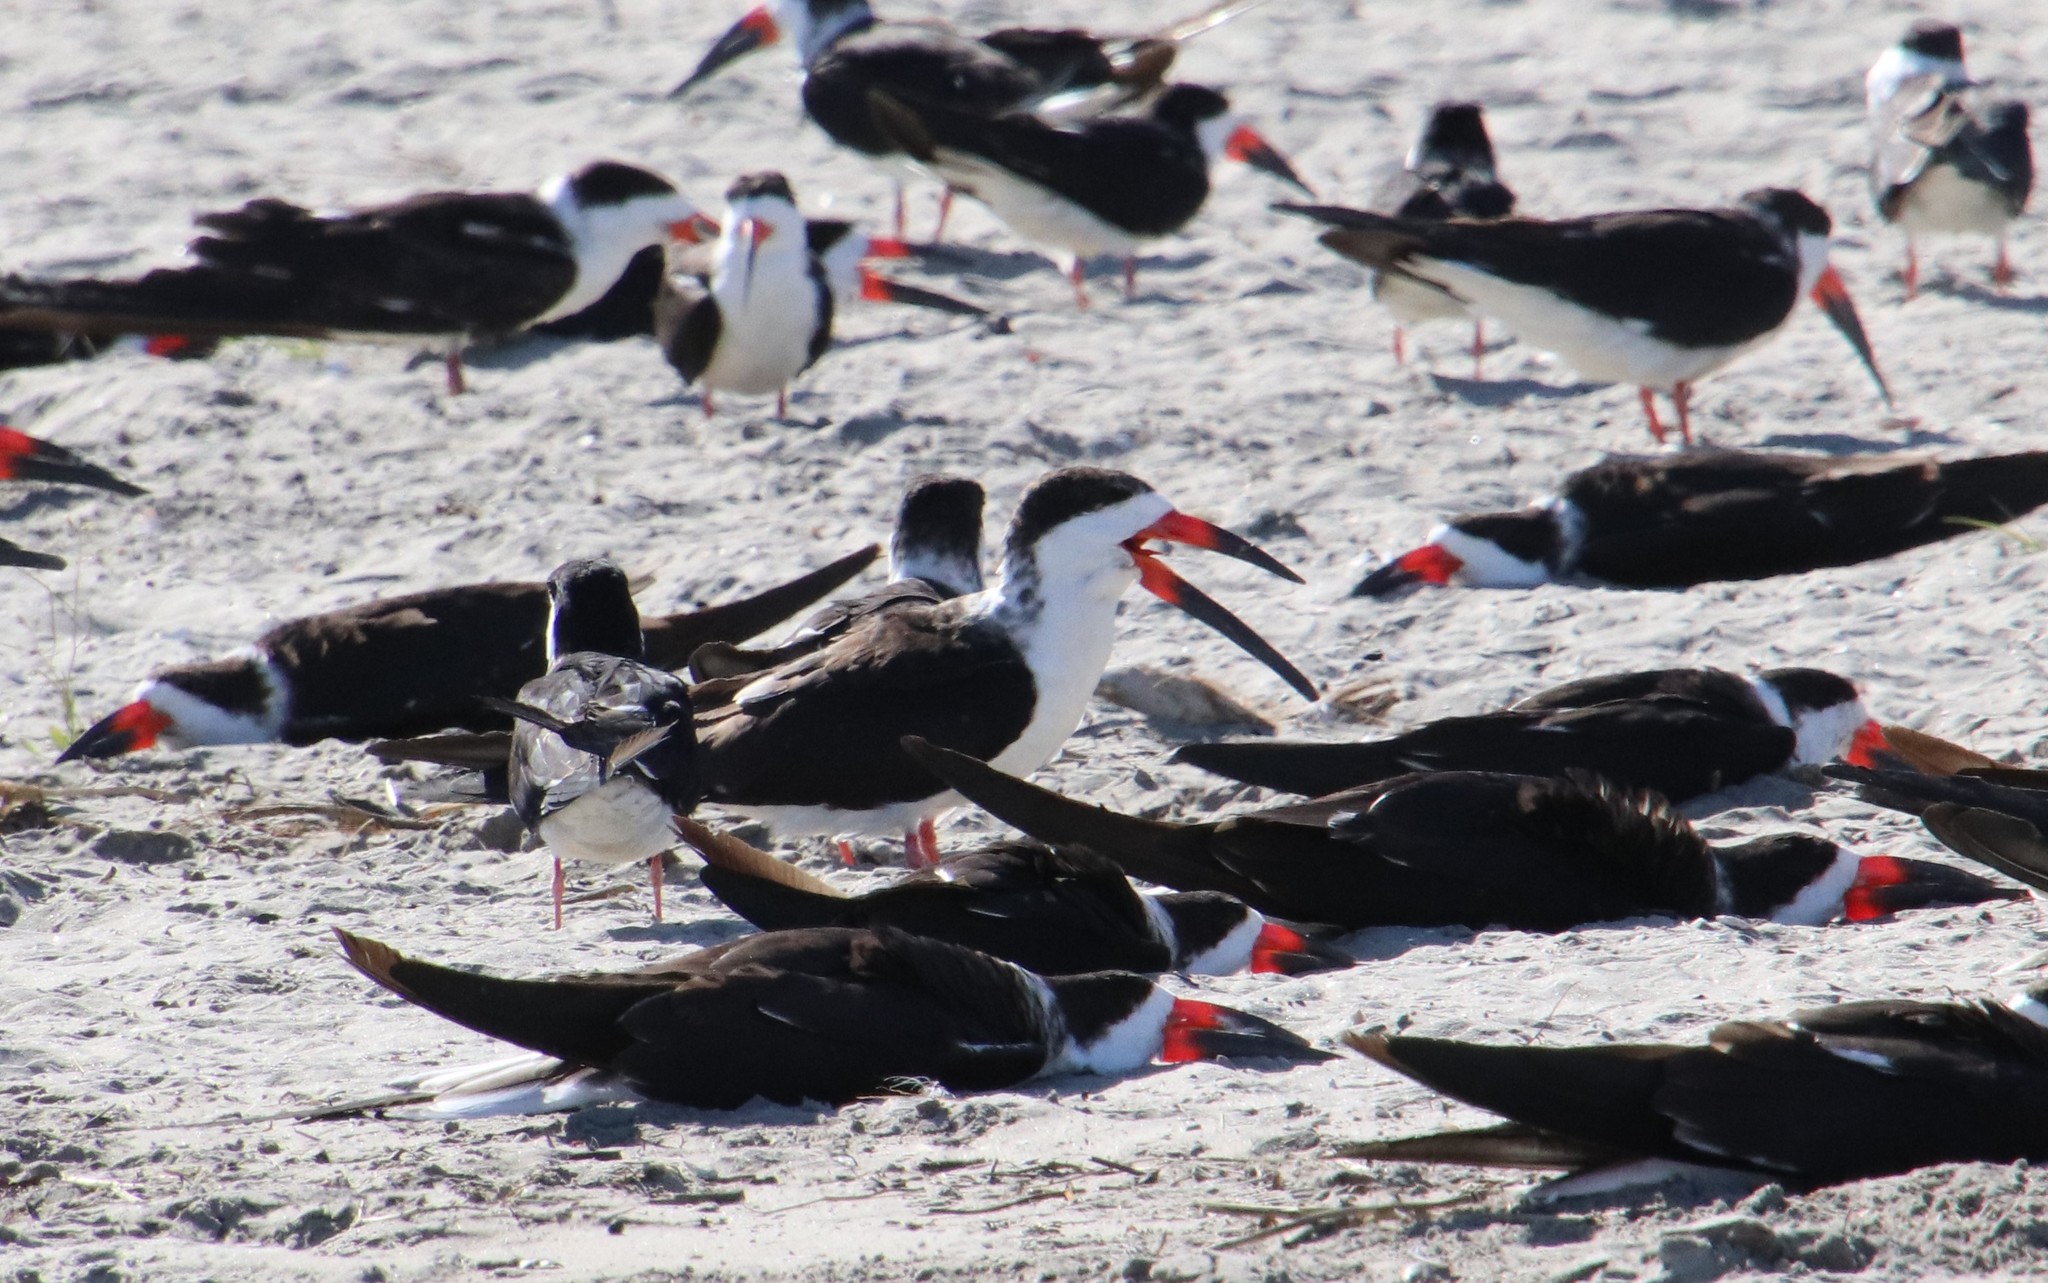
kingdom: Animalia
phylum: Chordata
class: Aves
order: Charadriiformes
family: Laridae
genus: Rynchops
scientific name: Rynchops niger
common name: Black skimmer
